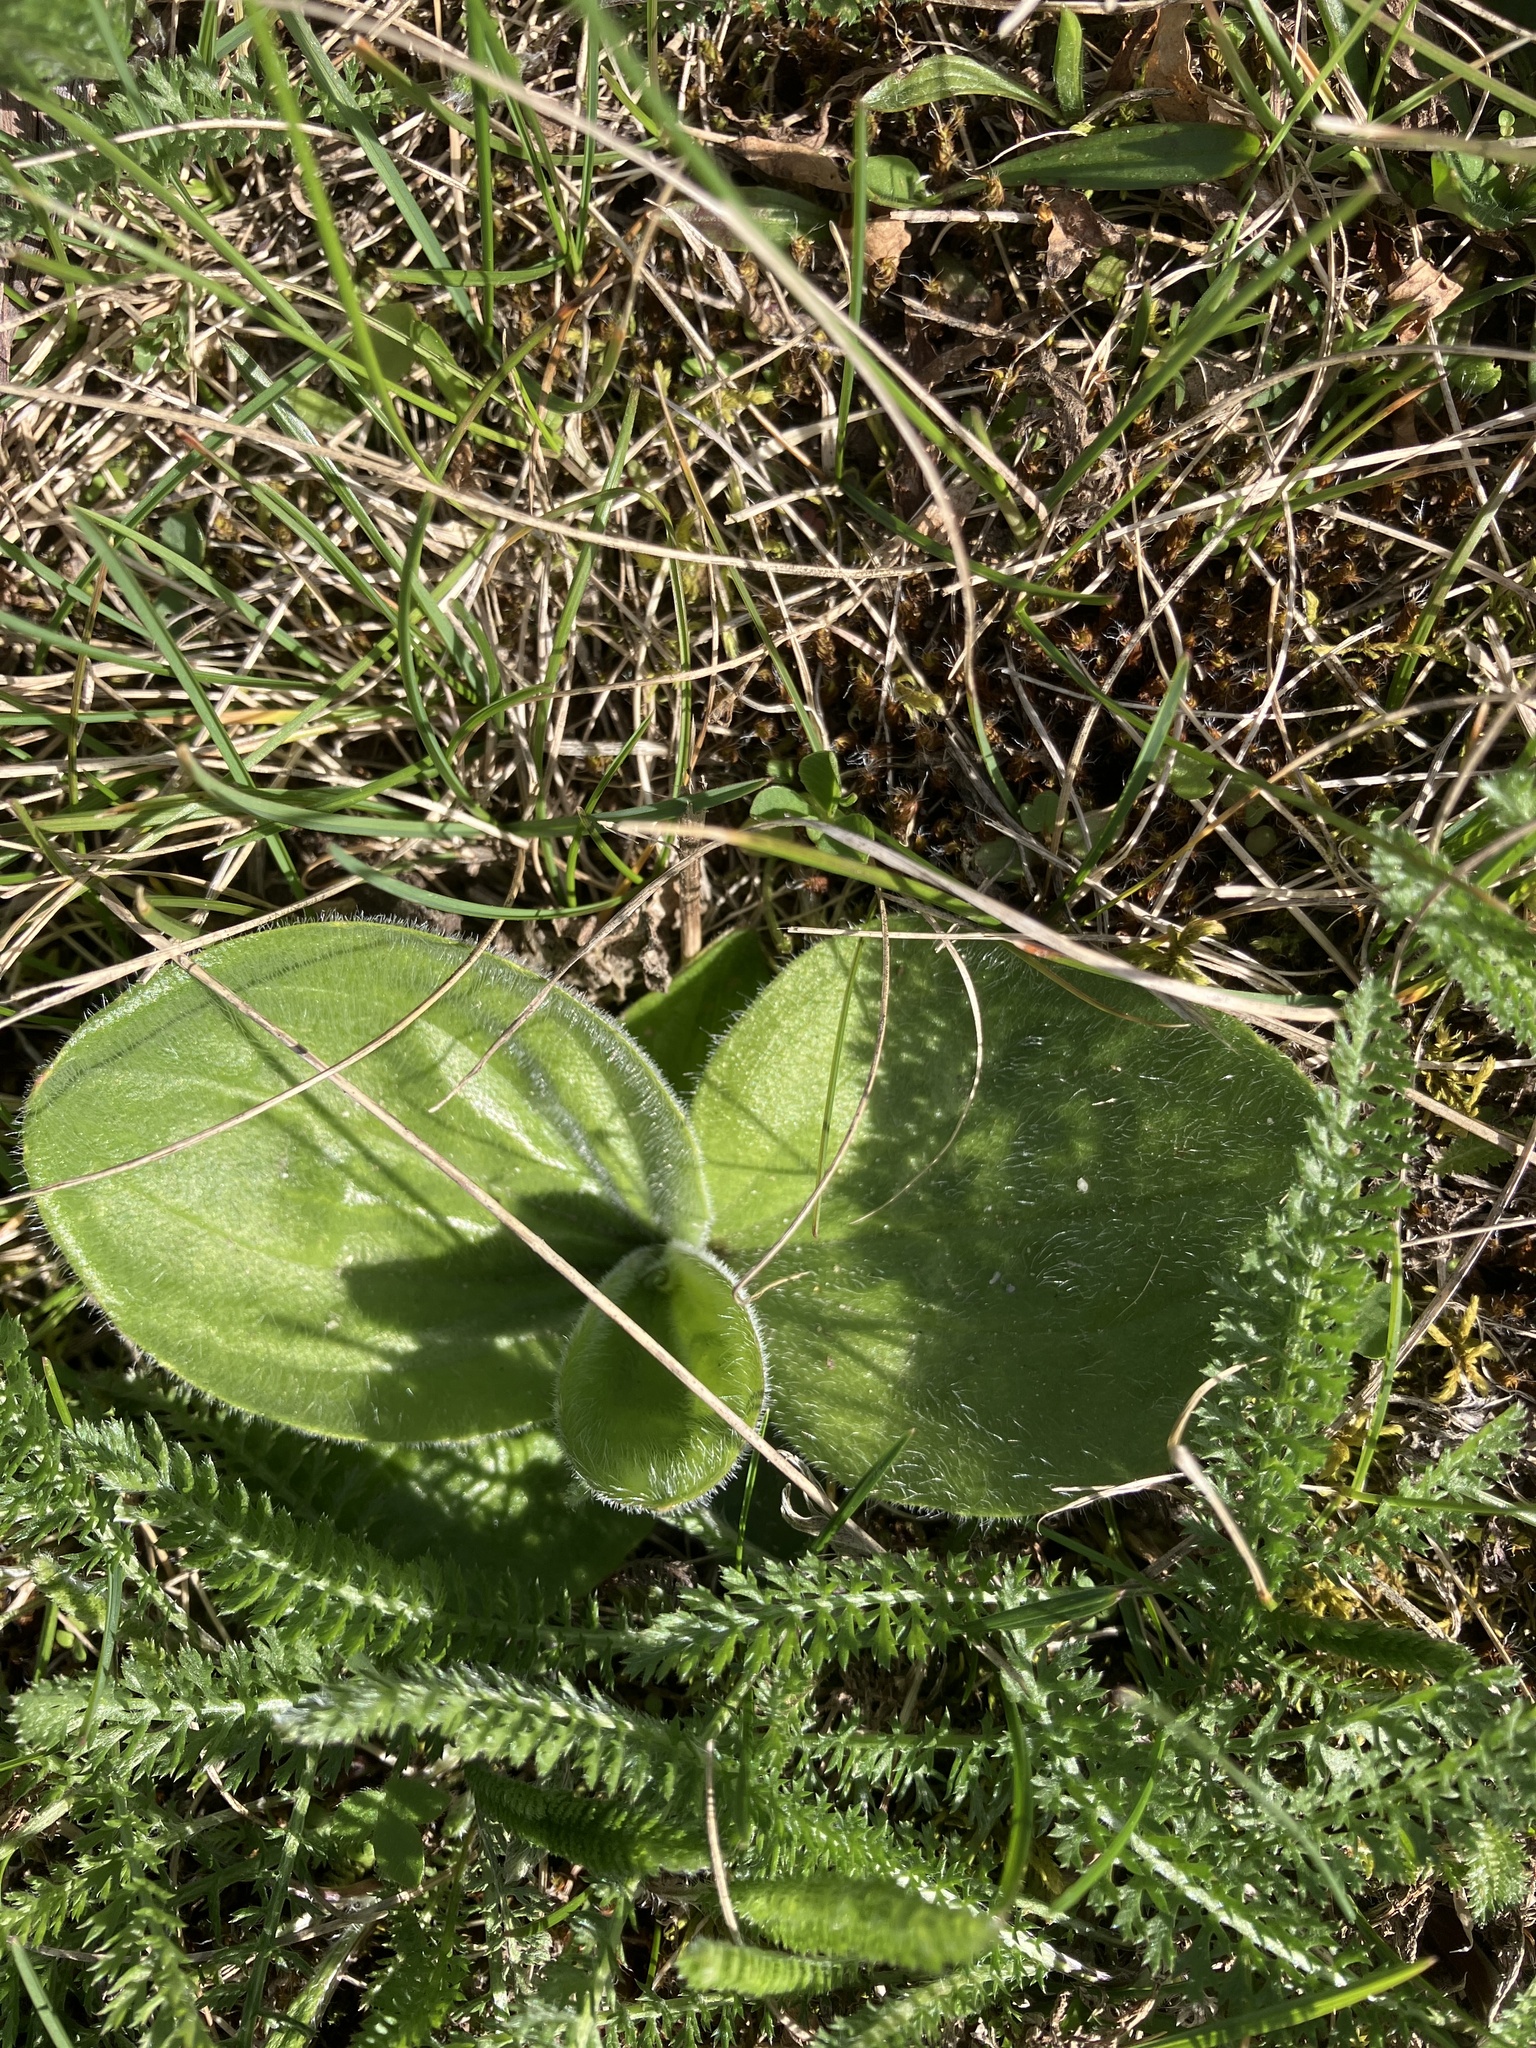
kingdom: Plantae
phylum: Tracheophyta
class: Magnoliopsida
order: Lamiales
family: Plantaginaceae
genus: Plantago
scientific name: Plantago media
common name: Hoary plantain
